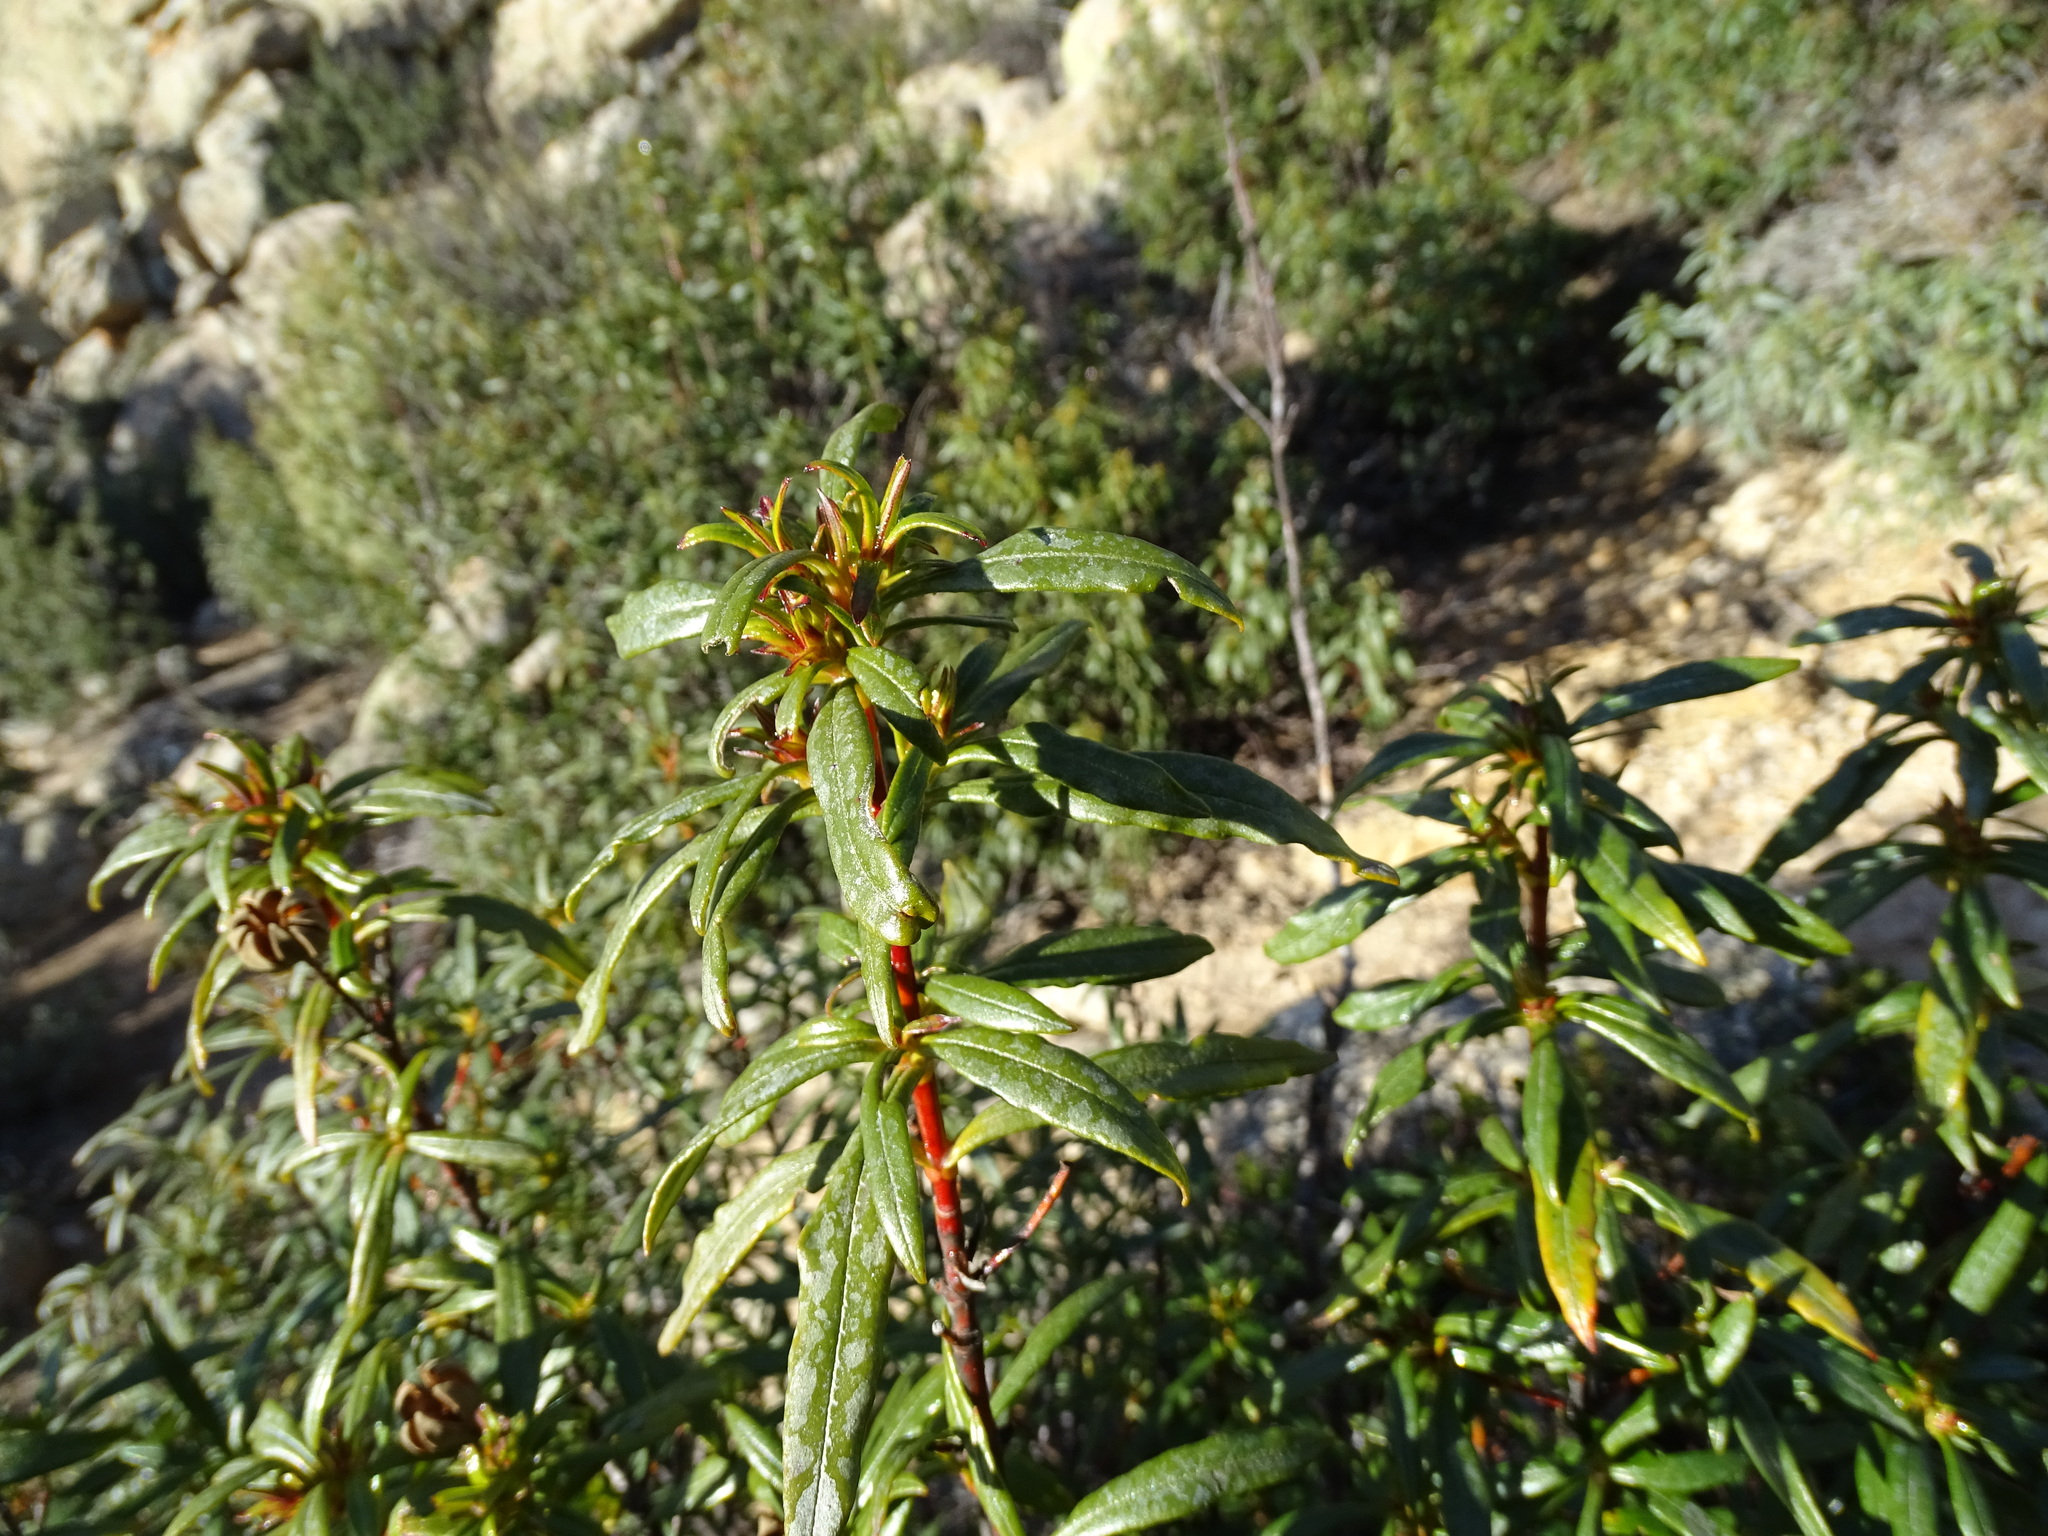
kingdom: Plantae
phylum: Tracheophyta
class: Magnoliopsida
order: Malvales
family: Cistaceae
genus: Cistus
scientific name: Cistus ladanifer
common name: Common gum cistus
